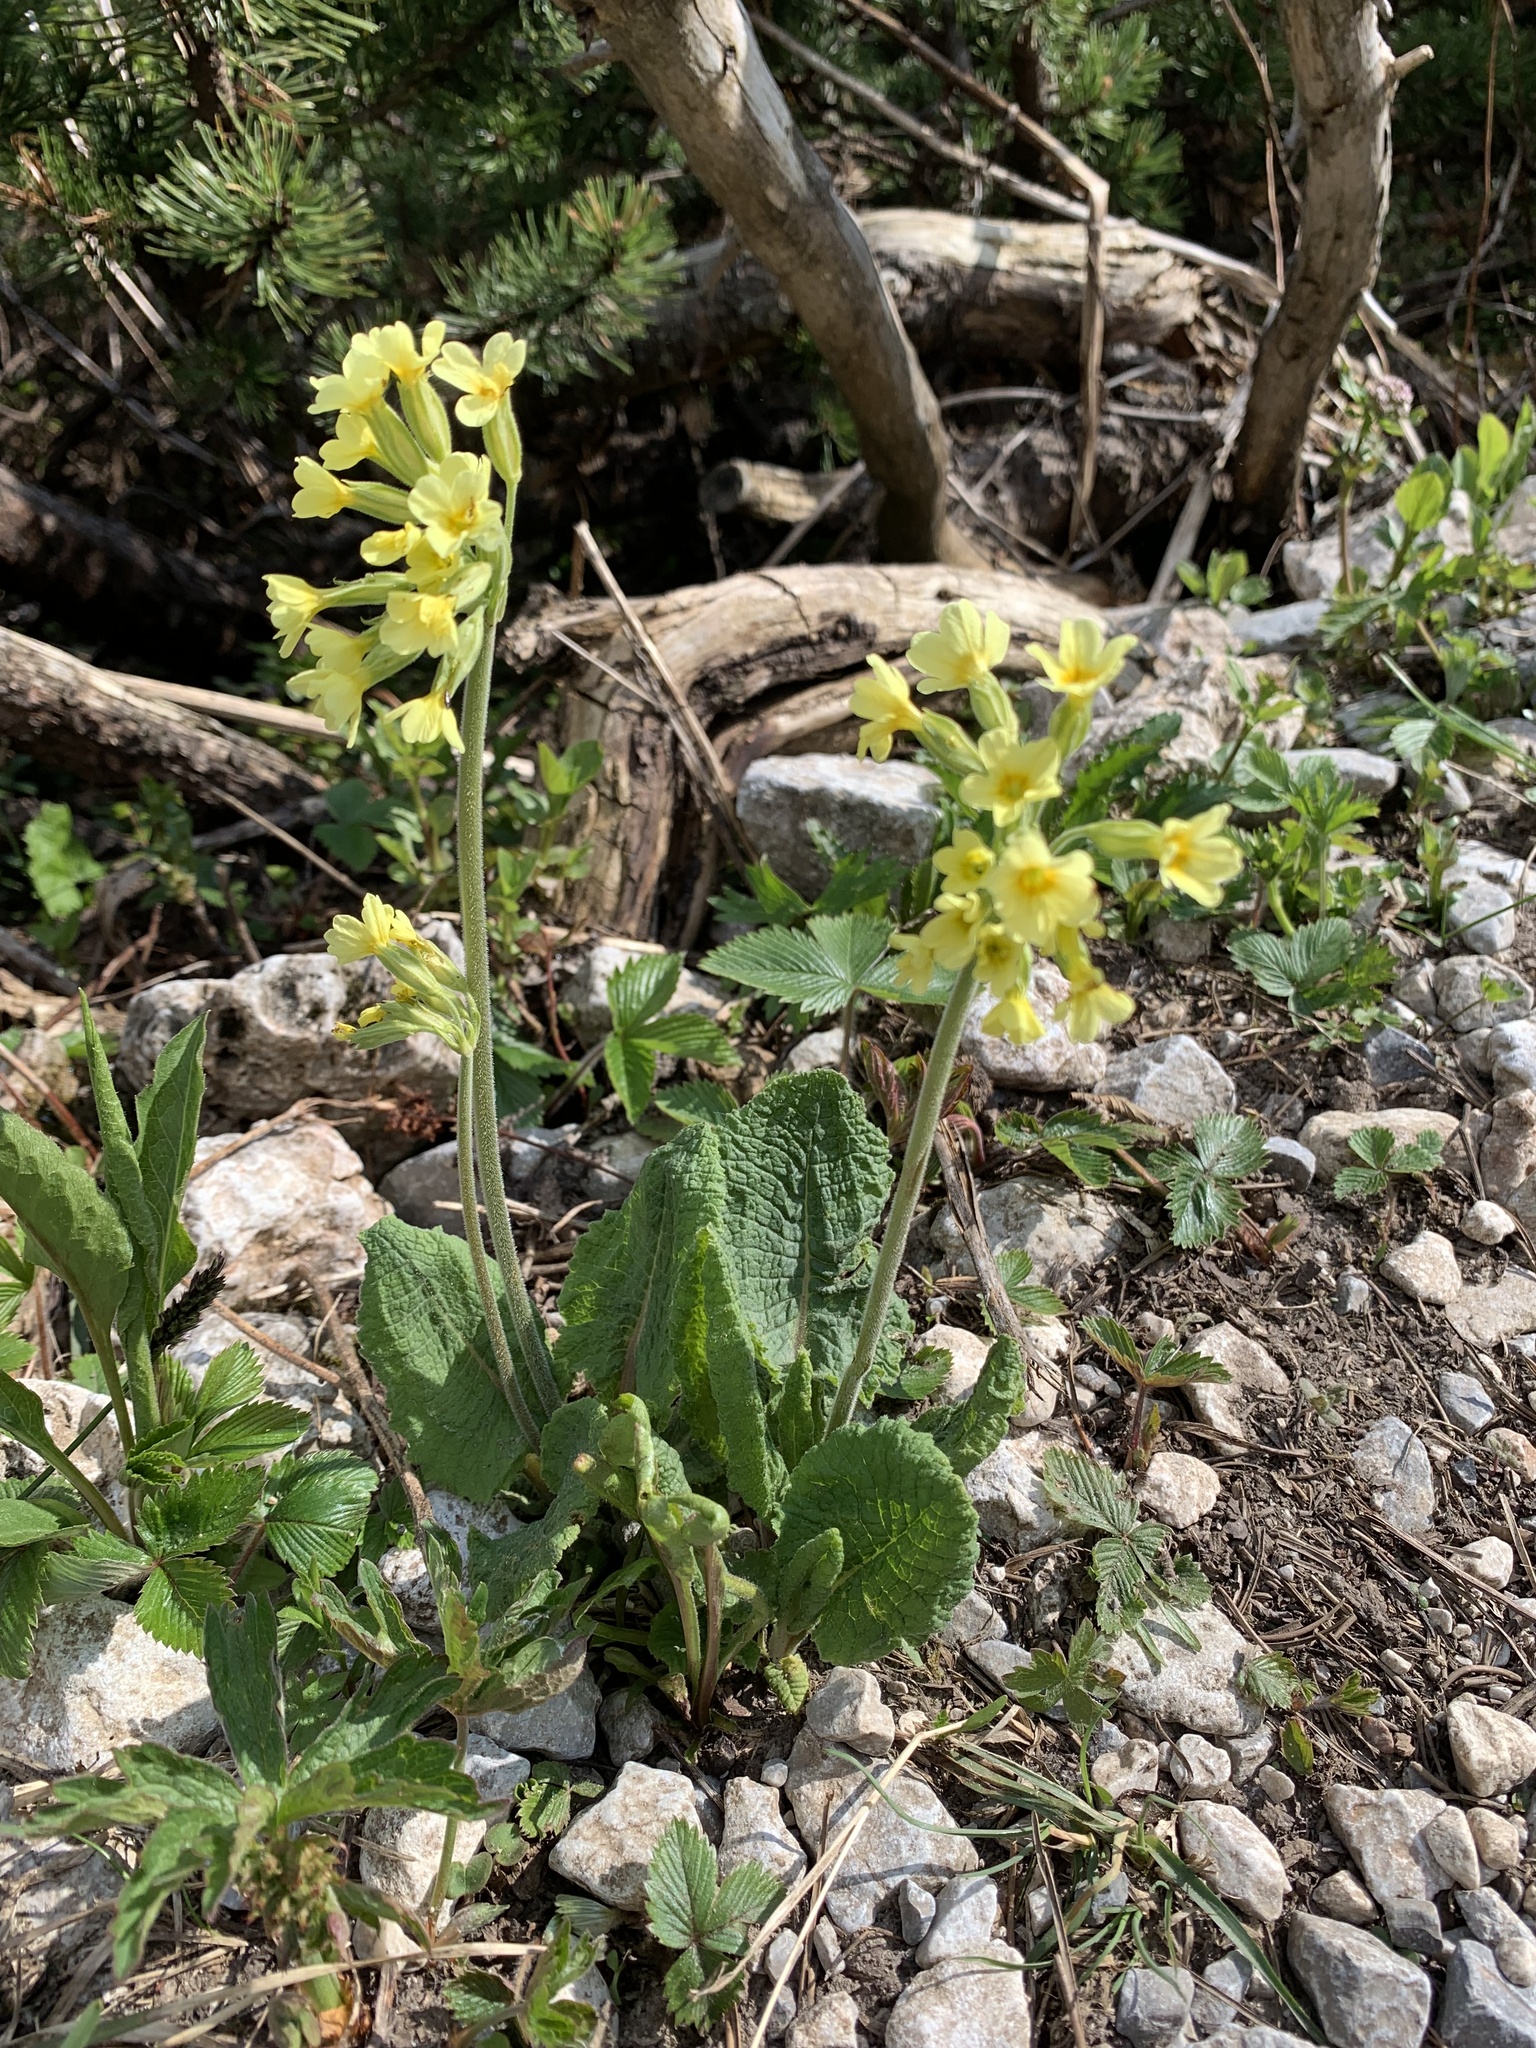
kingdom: Plantae
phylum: Tracheophyta
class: Magnoliopsida
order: Ericales
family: Primulaceae
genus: Primula
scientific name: Primula elatior
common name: Oxlip
